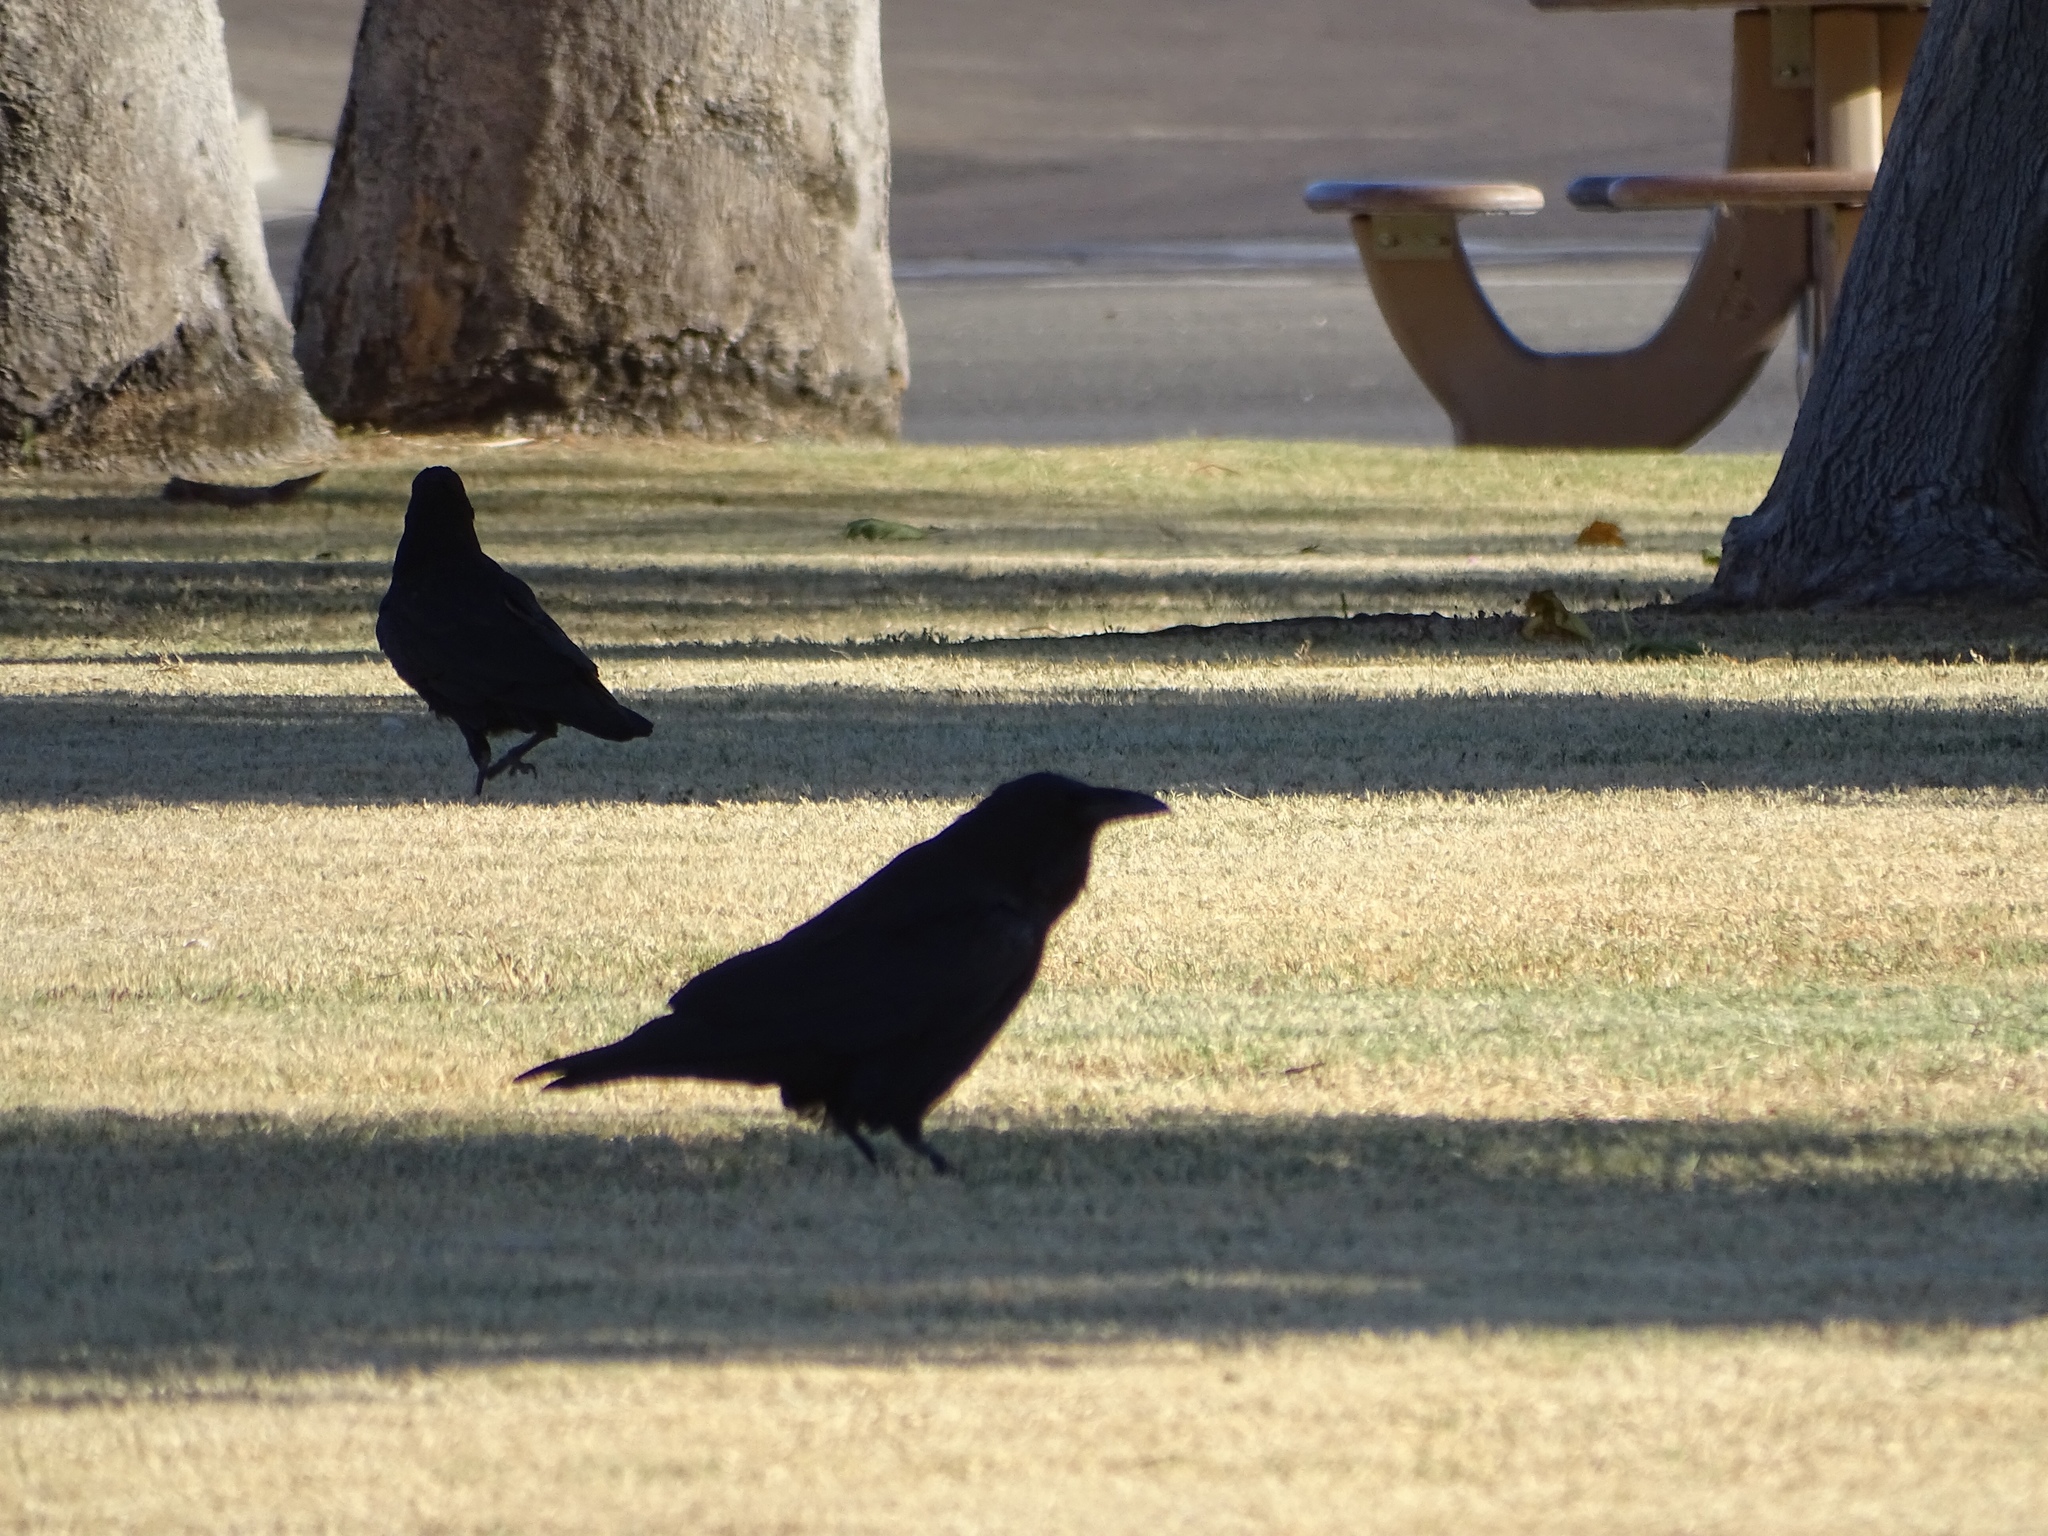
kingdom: Animalia
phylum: Chordata
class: Aves
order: Passeriformes
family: Corvidae
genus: Corvus
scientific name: Corvus corax
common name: Common raven
